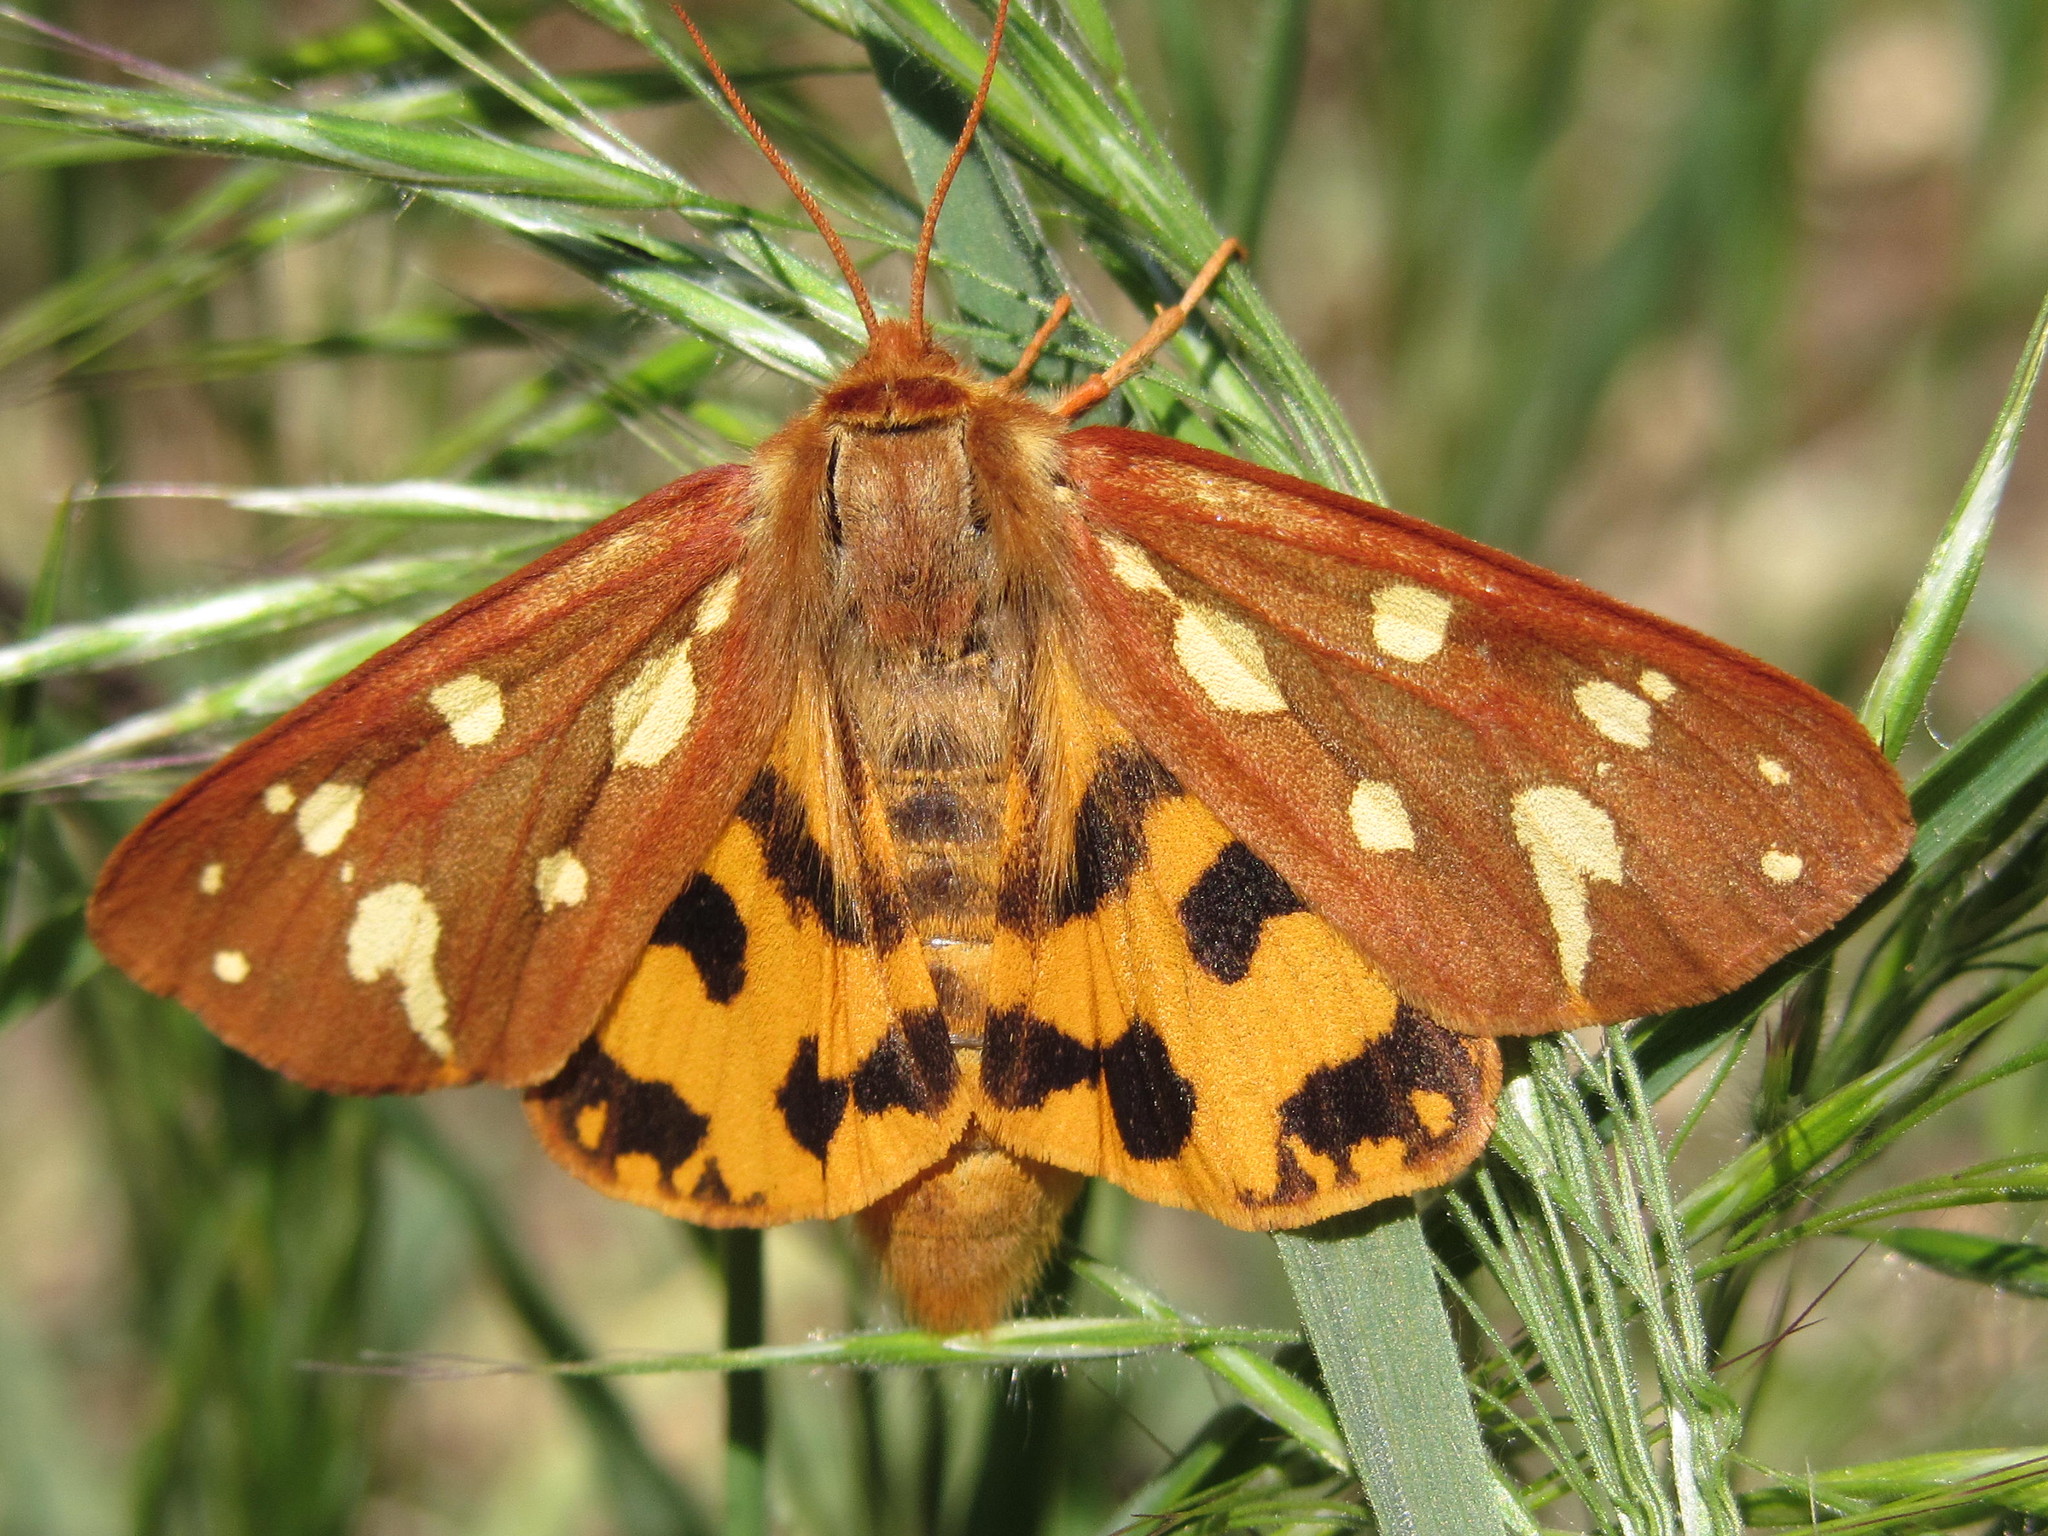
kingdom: Animalia
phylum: Arthropoda
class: Insecta
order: Lepidoptera
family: Erebidae
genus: Hyphoraia
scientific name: Hyphoraia aulica
